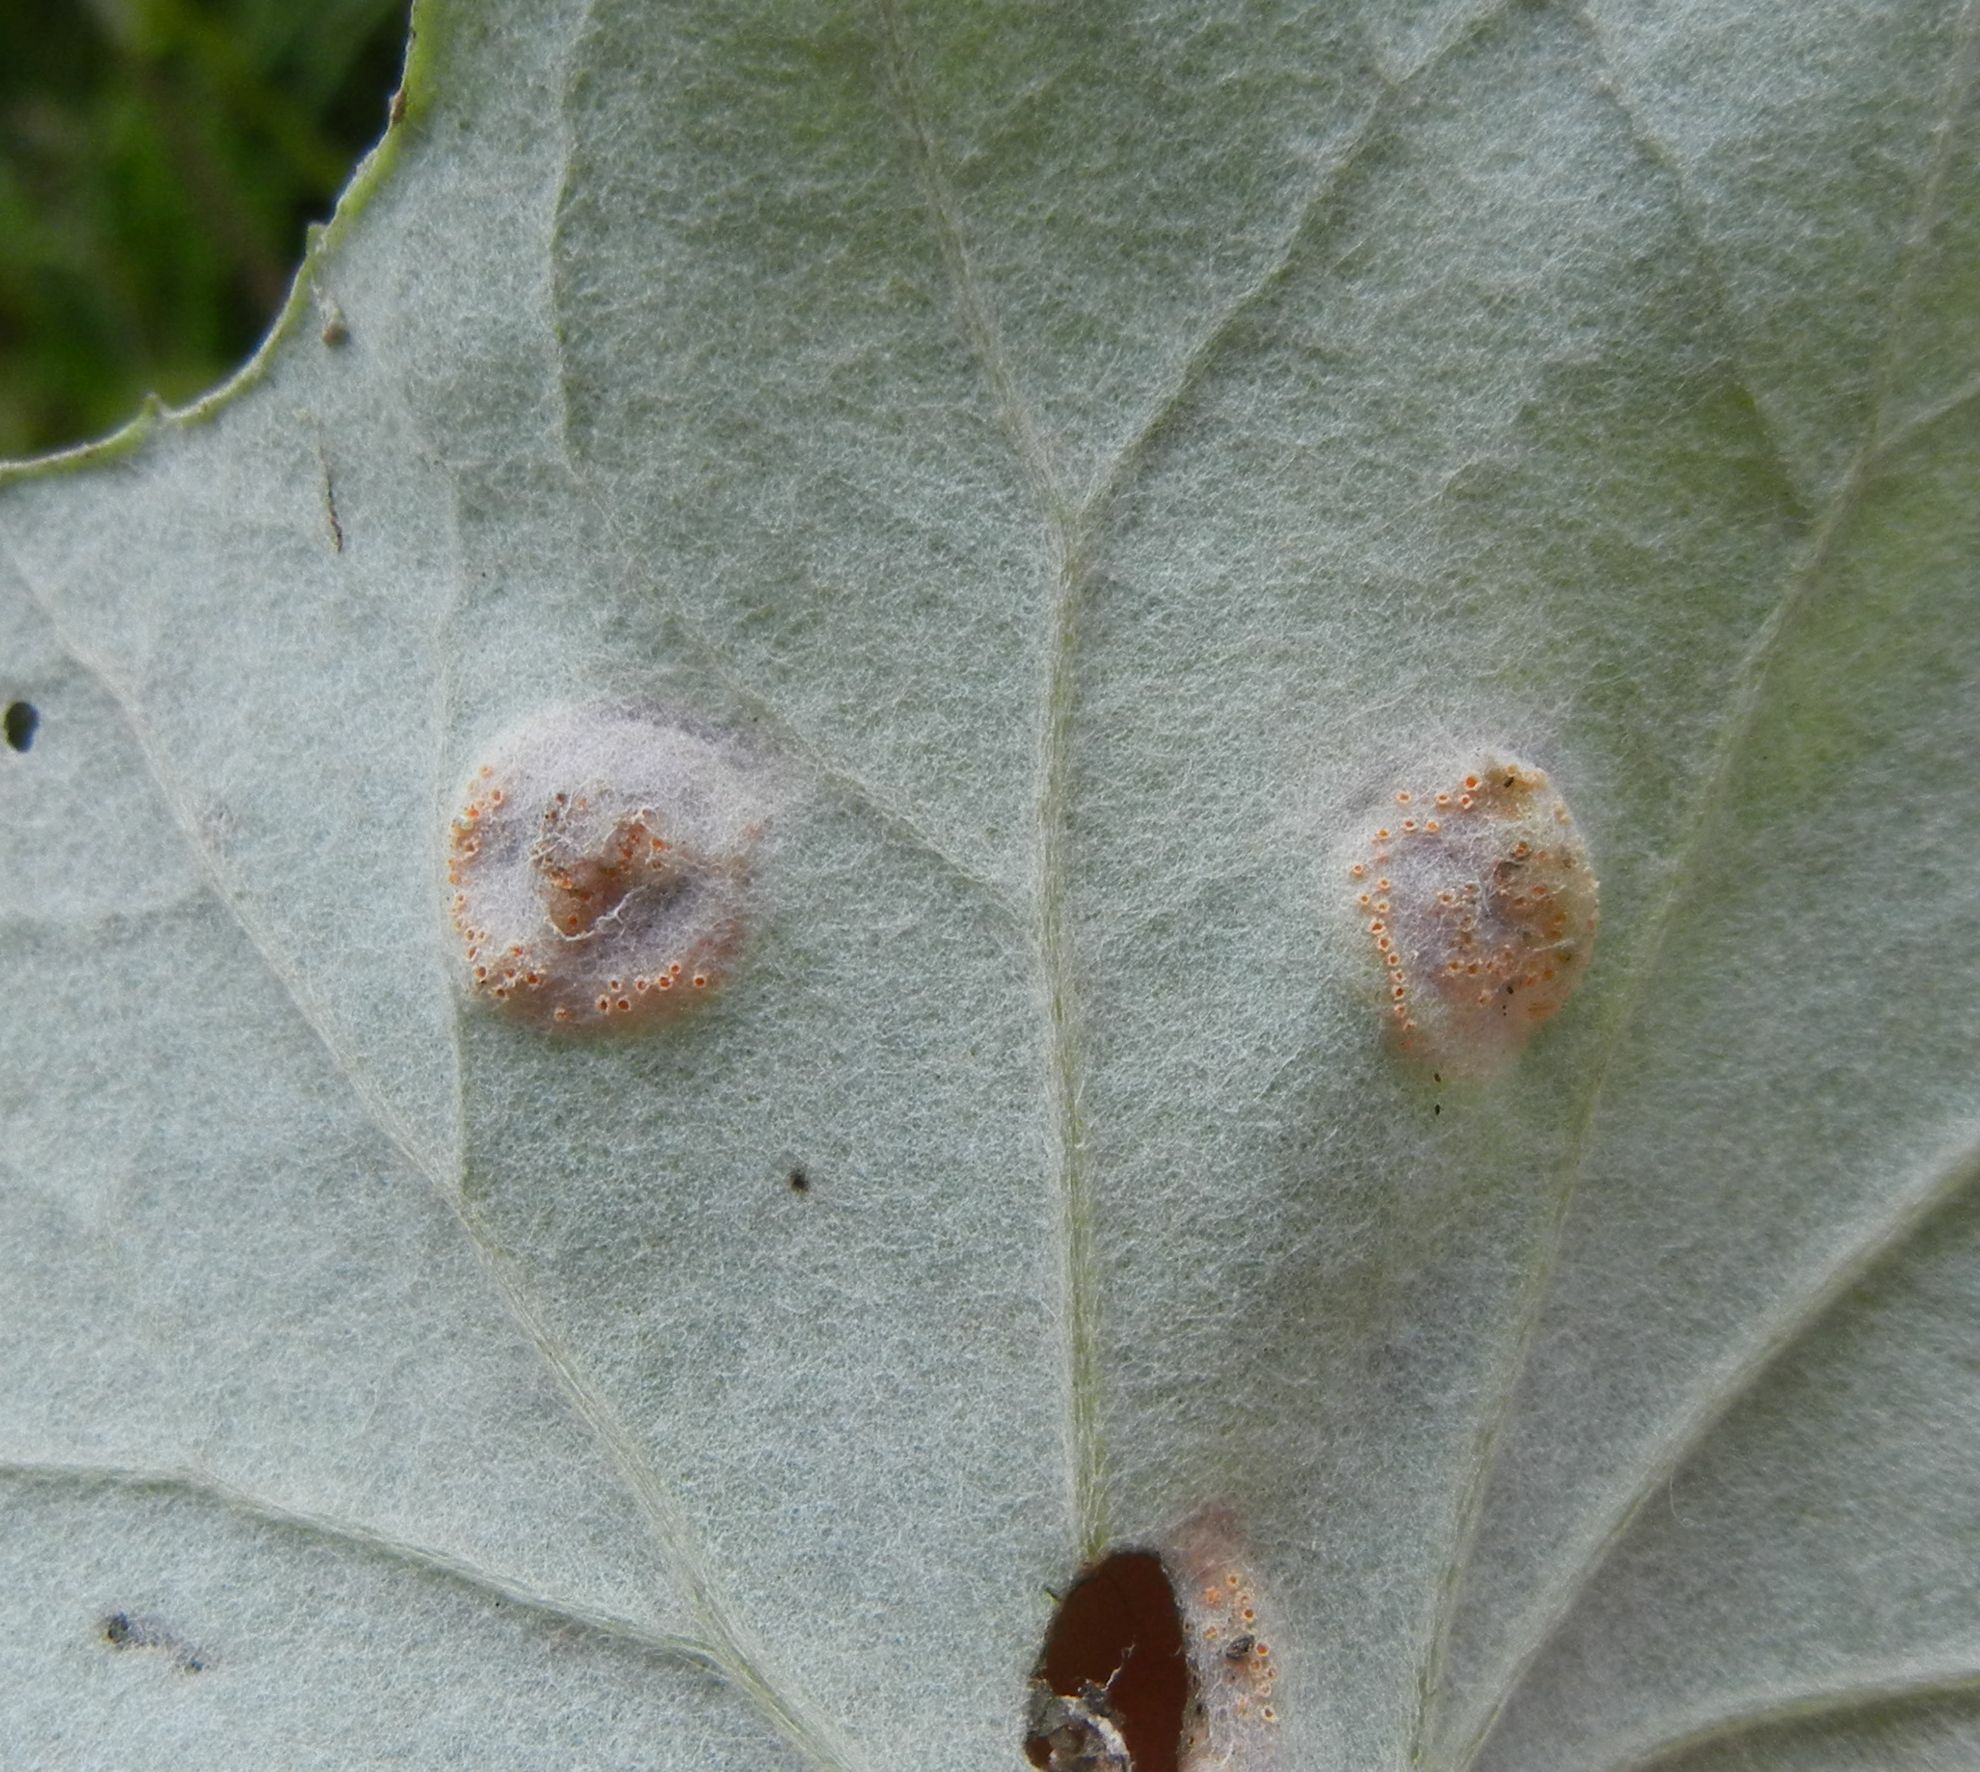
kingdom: Fungi
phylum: Basidiomycota
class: Pucciniomycetes
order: Pucciniales
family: Pucciniaceae
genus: Puccinia
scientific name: Puccinia
